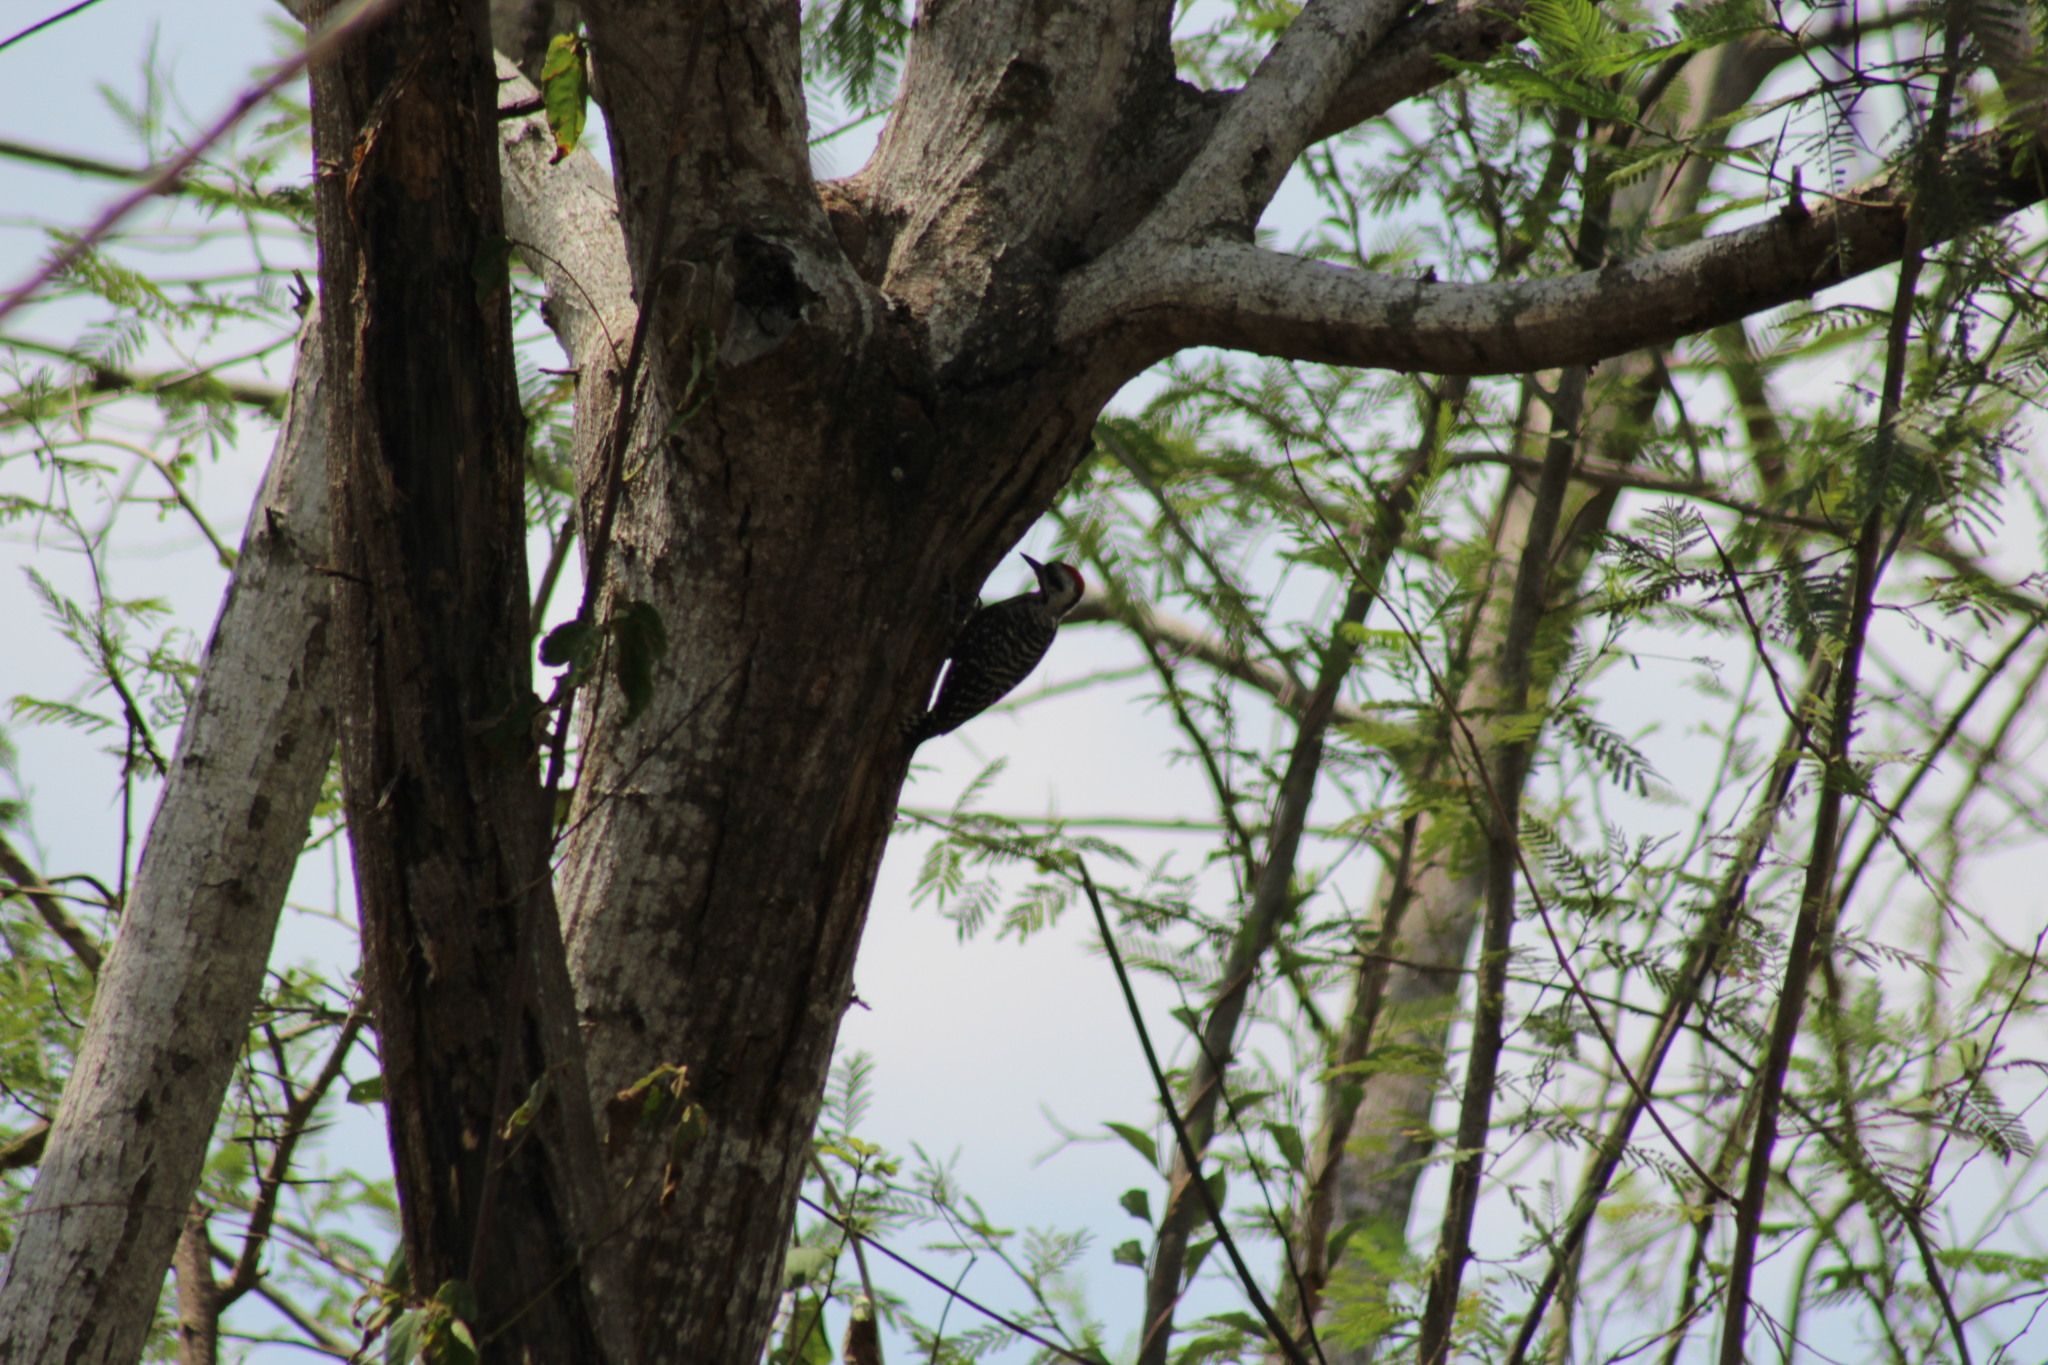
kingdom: Animalia
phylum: Chordata
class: Aves
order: Piciformes
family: Picidae
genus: Dryobates
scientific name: Dryobates scalaris
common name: Ladder-backed woodpecker
